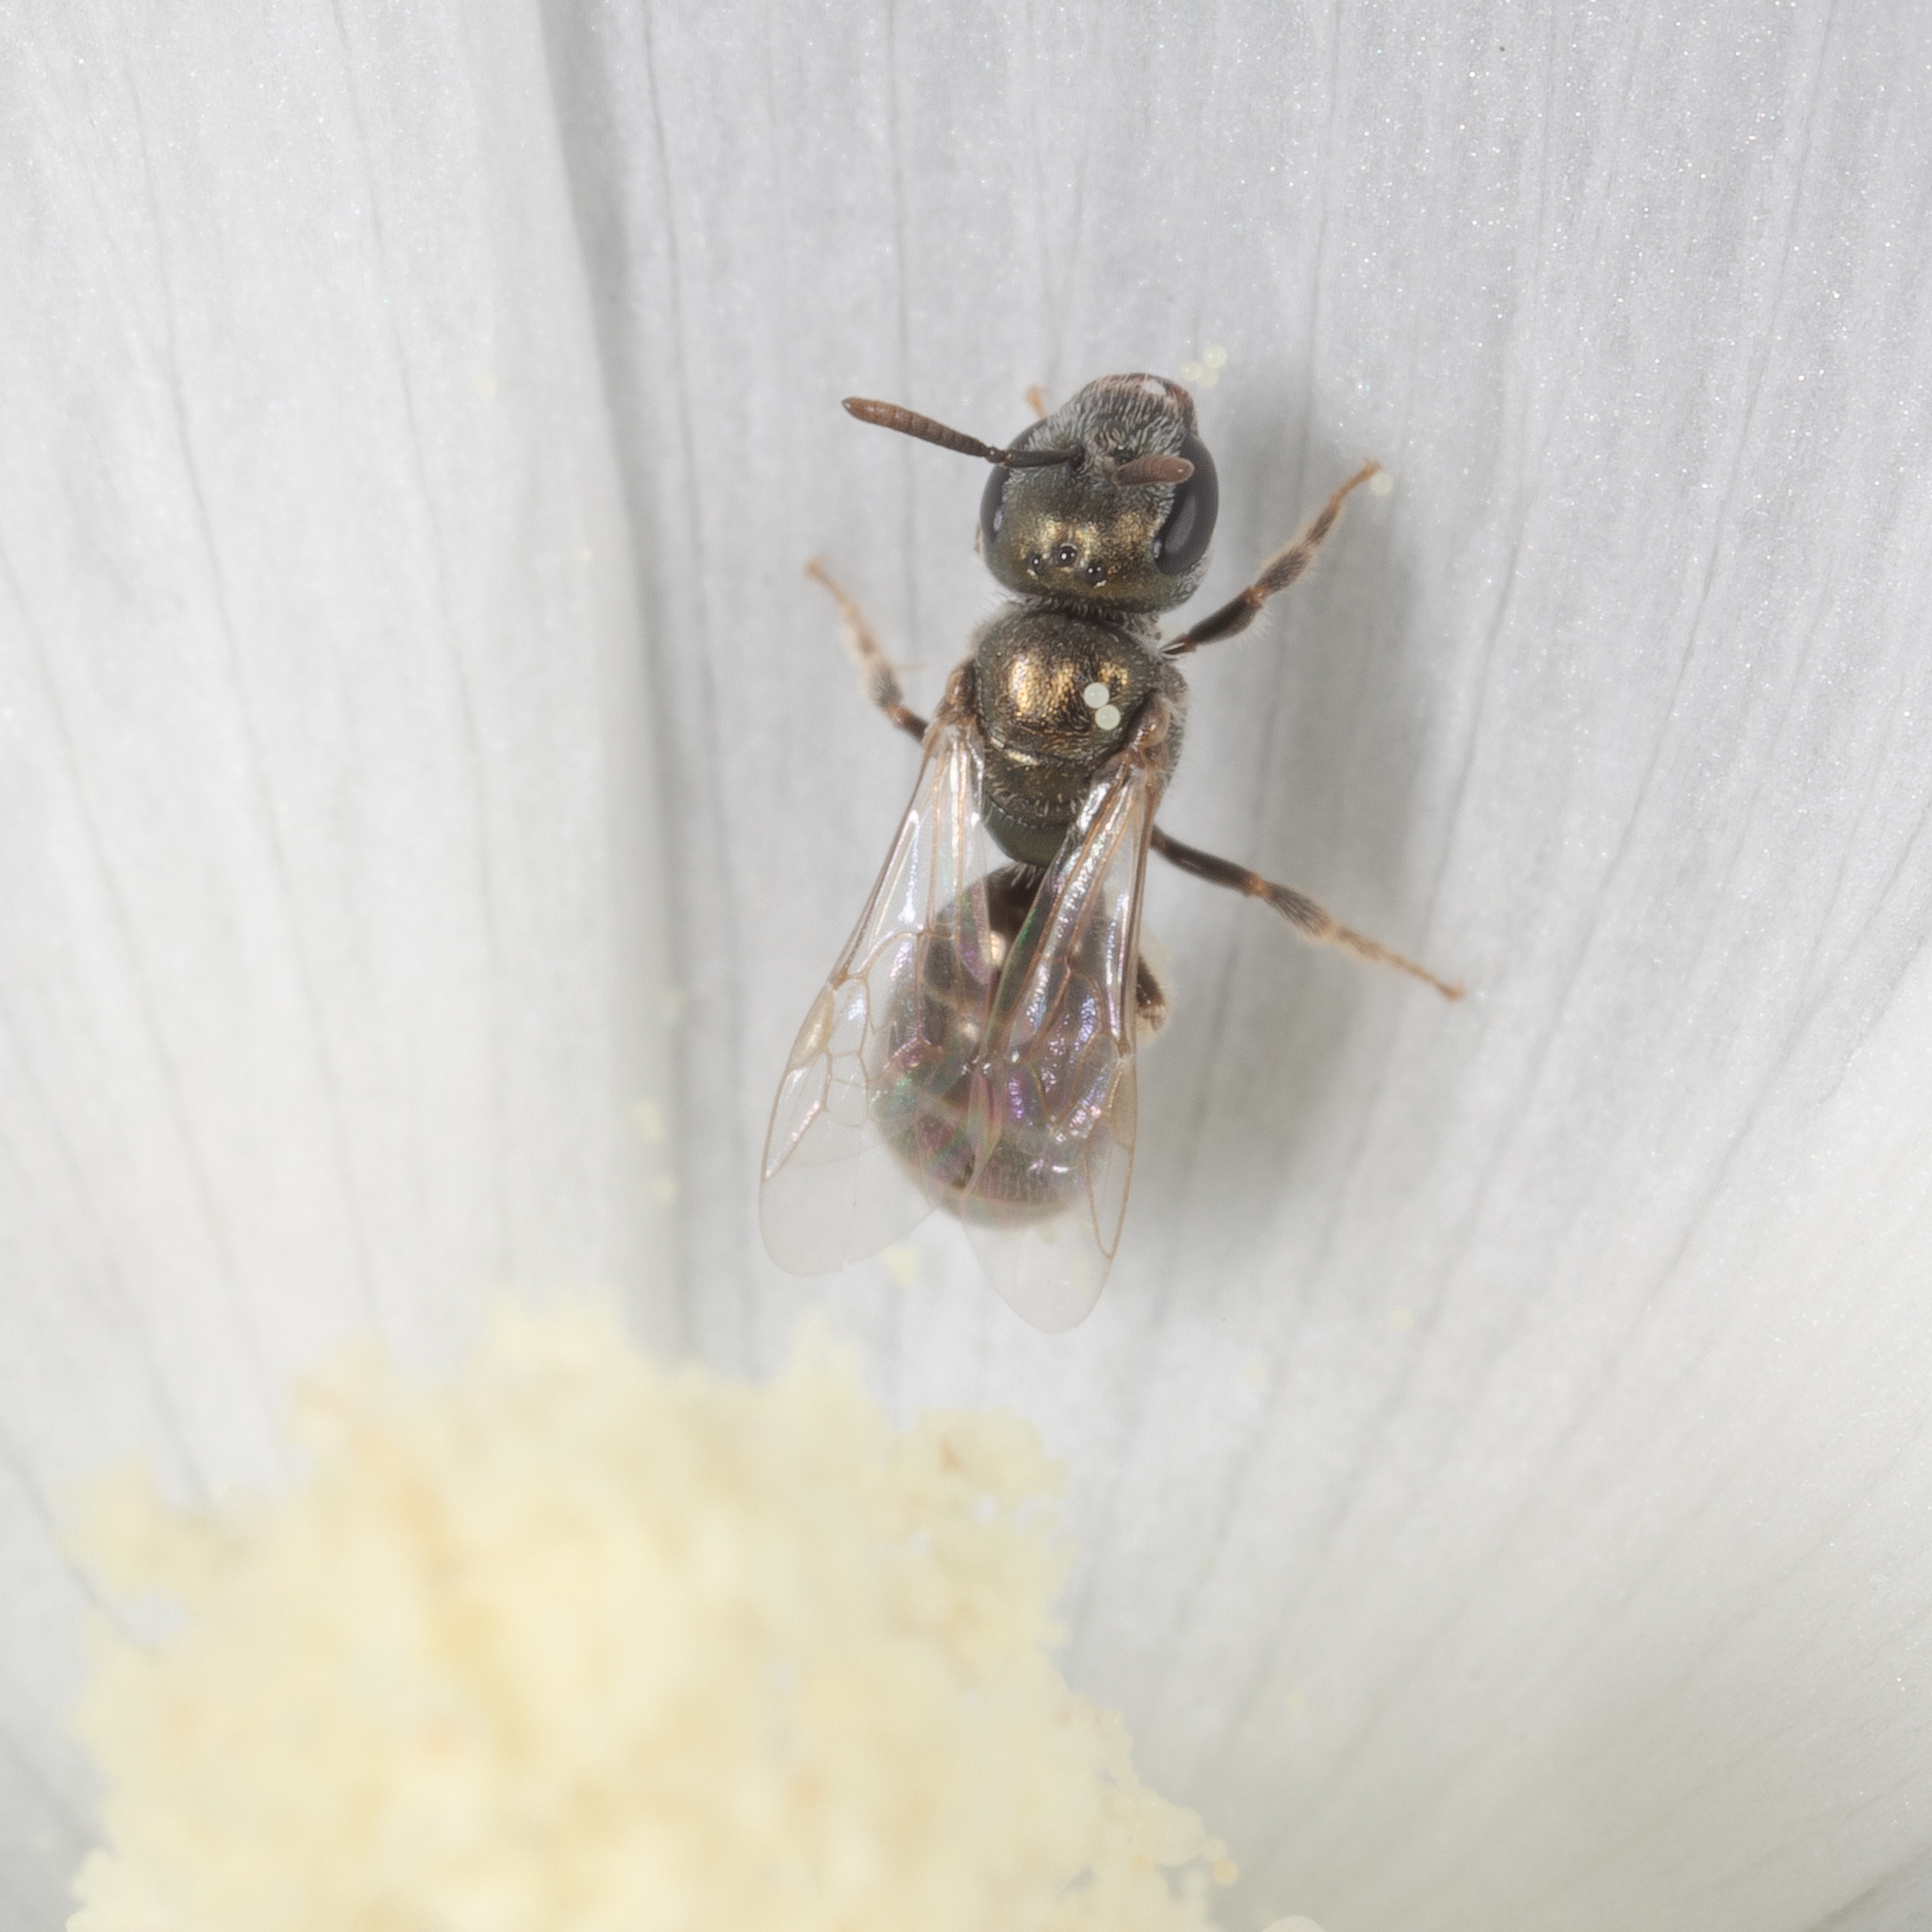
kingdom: Animalia
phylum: Arthropoda
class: Insecta
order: Hymenoptera
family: Halictidae
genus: Lasioglossum
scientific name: Lasioglossum imitatum
